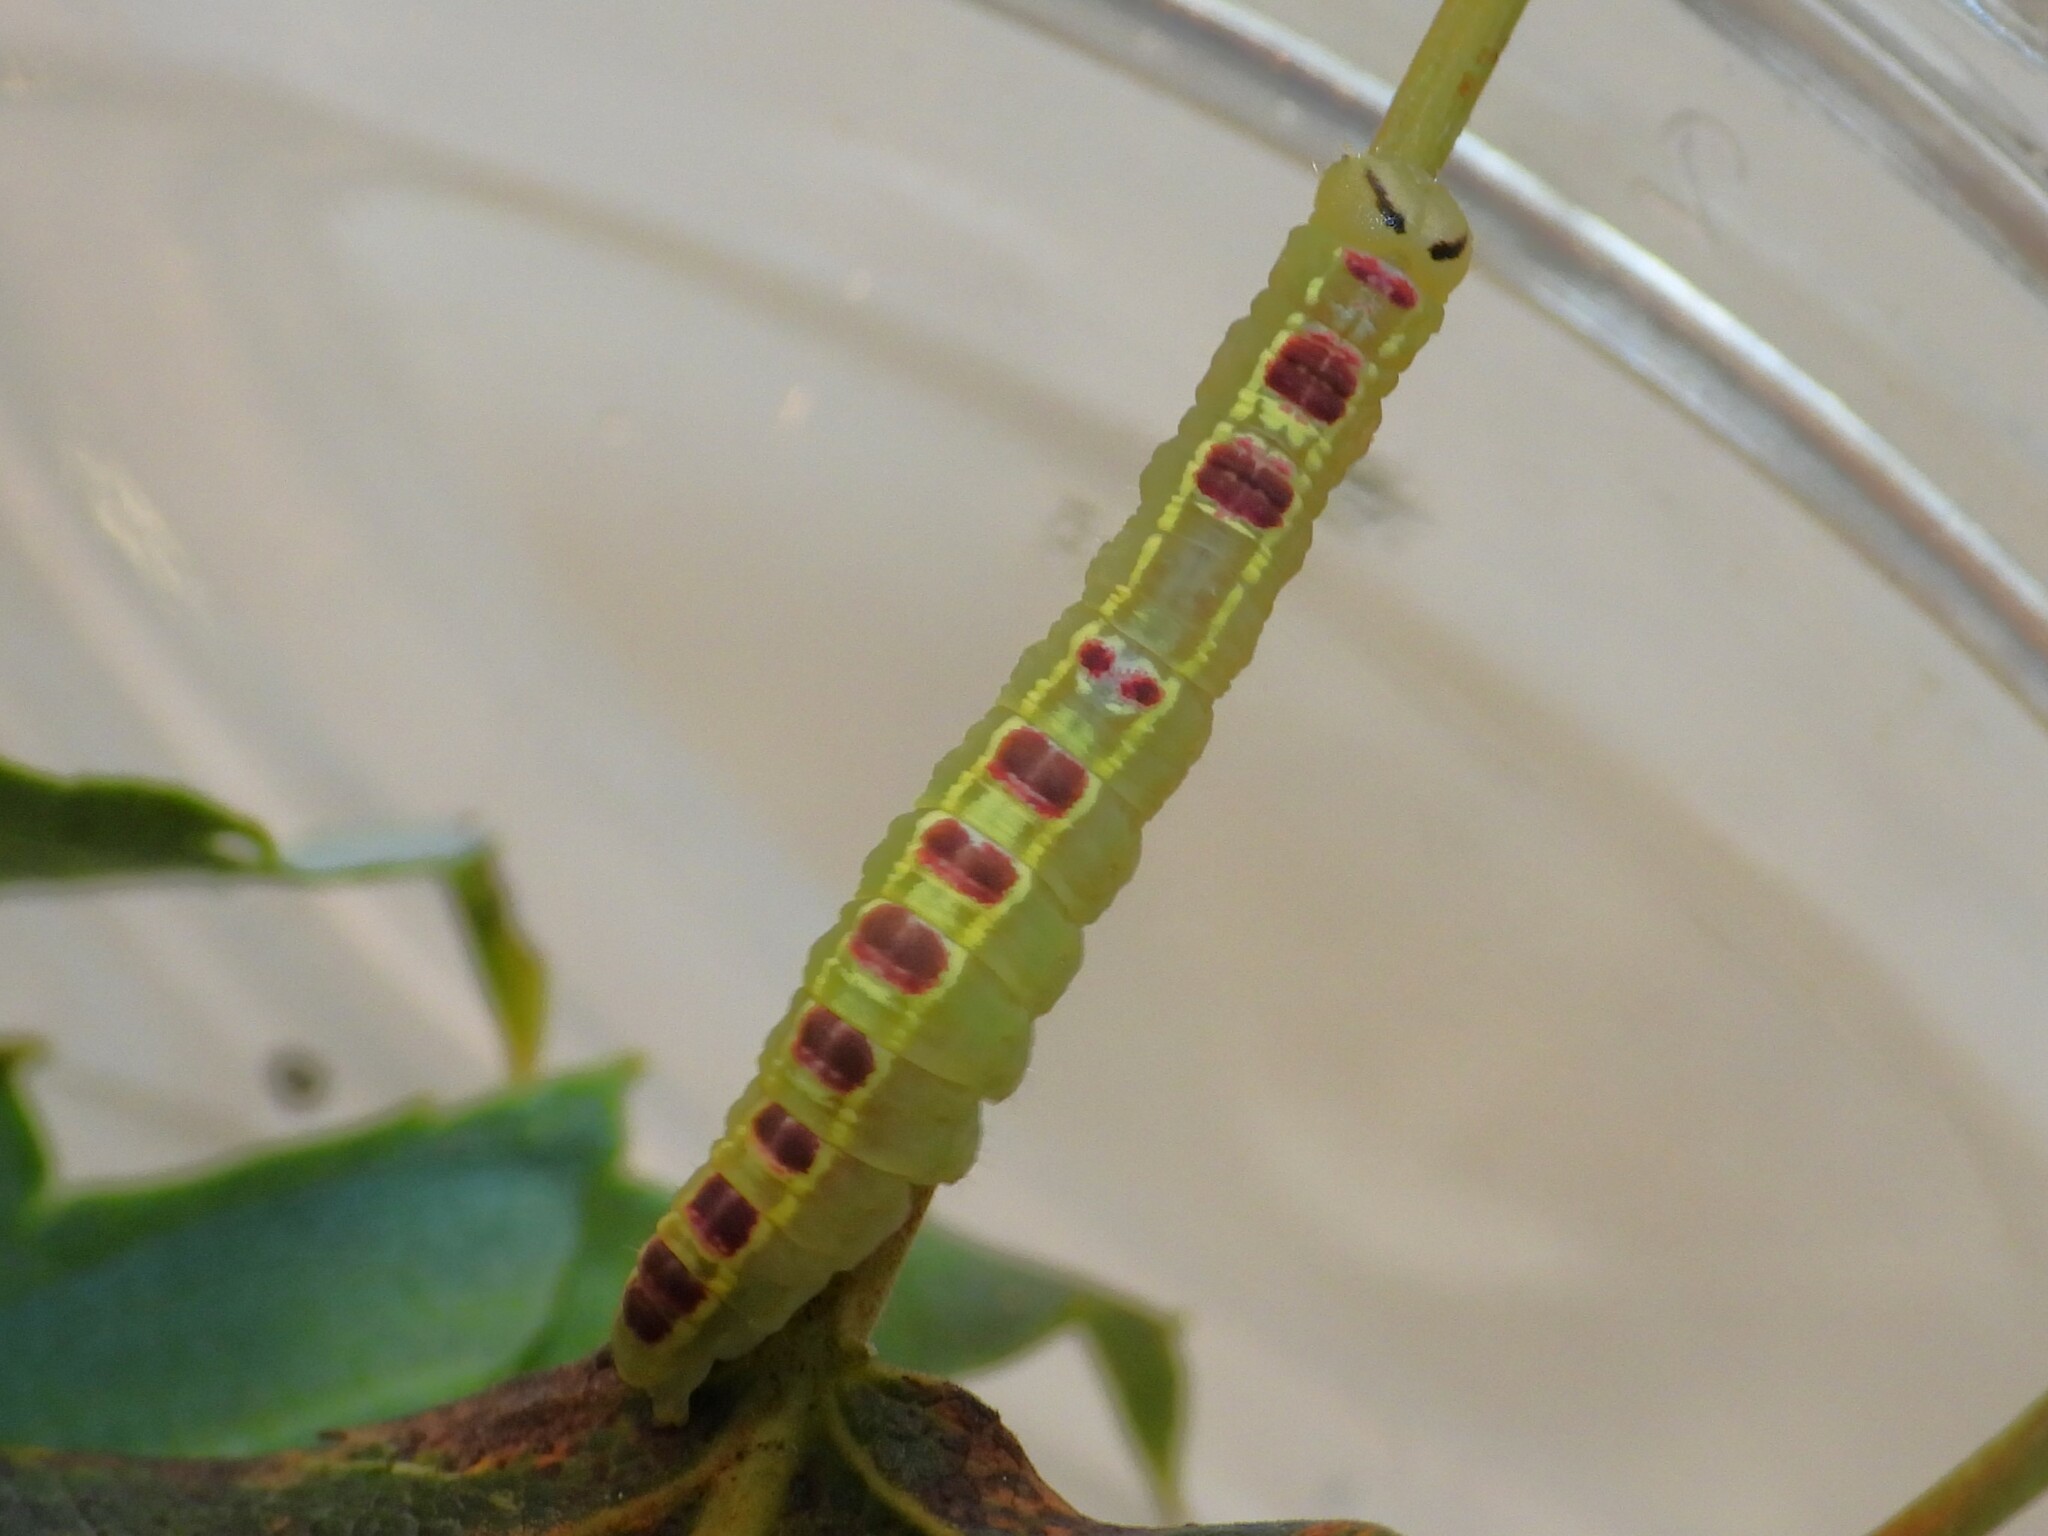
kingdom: Animalia
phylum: Arthropoda
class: Insecta
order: Lepidoptera
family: Notodontidae
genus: Gluphisia
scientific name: Gluphisia septentrionis
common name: Common gluphisia
